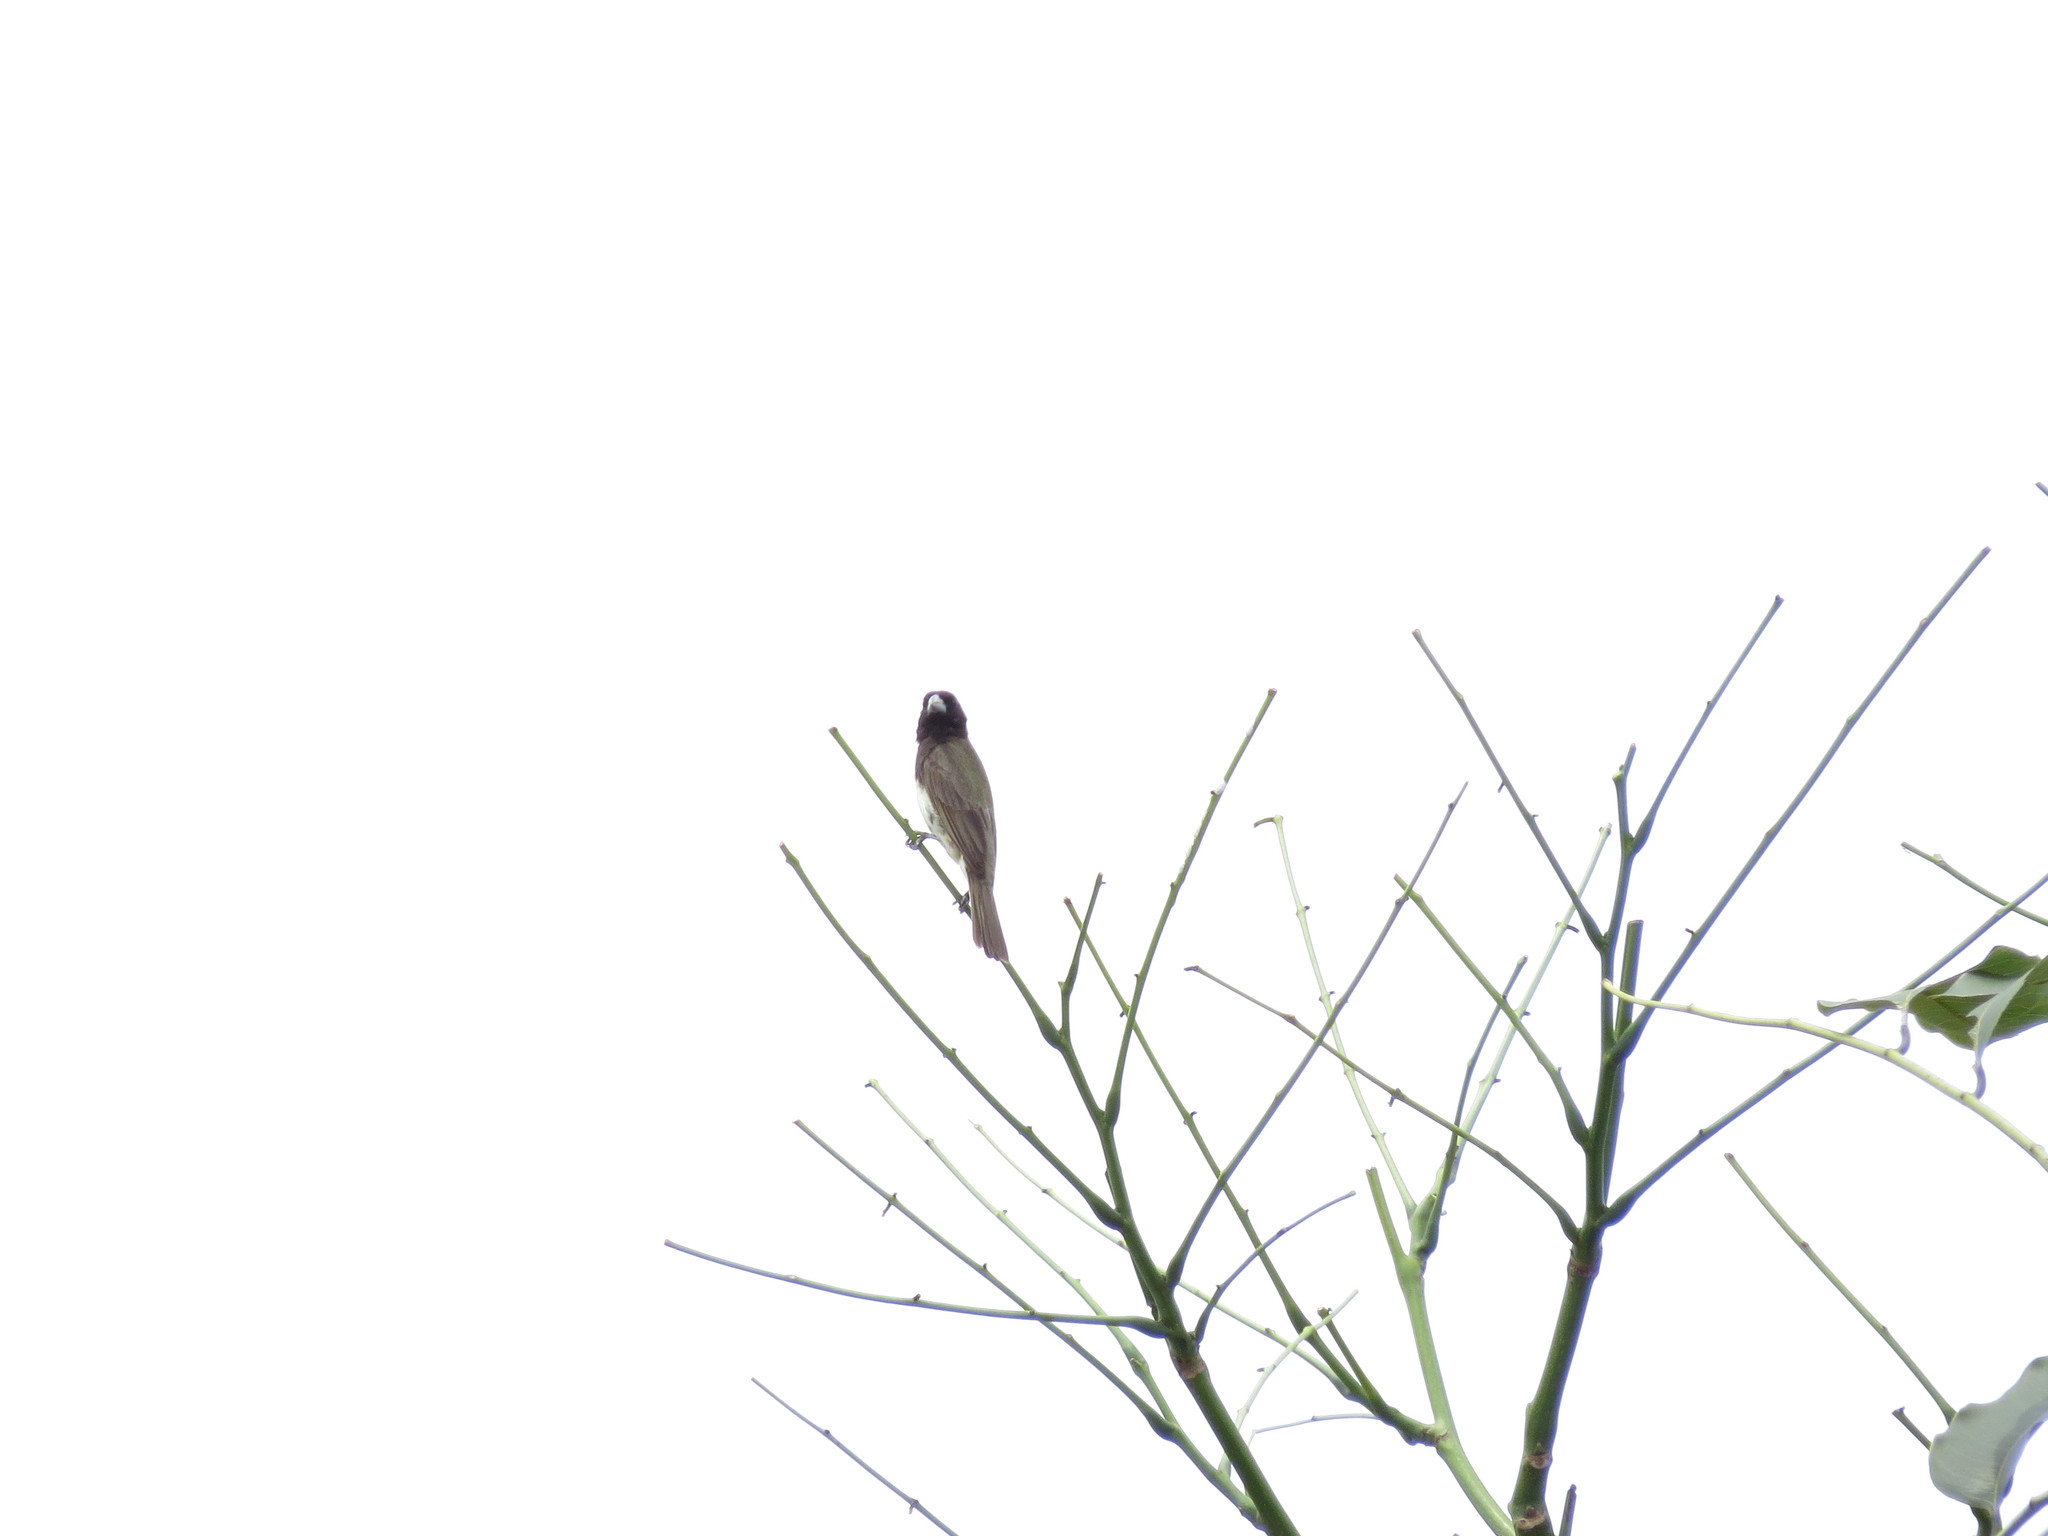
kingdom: Animalia
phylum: Chordata
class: Aves
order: Passeriformes
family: Thraupidae
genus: Sporophila
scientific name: Sporophila nigricollis
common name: Yellow-bellied seedeater
